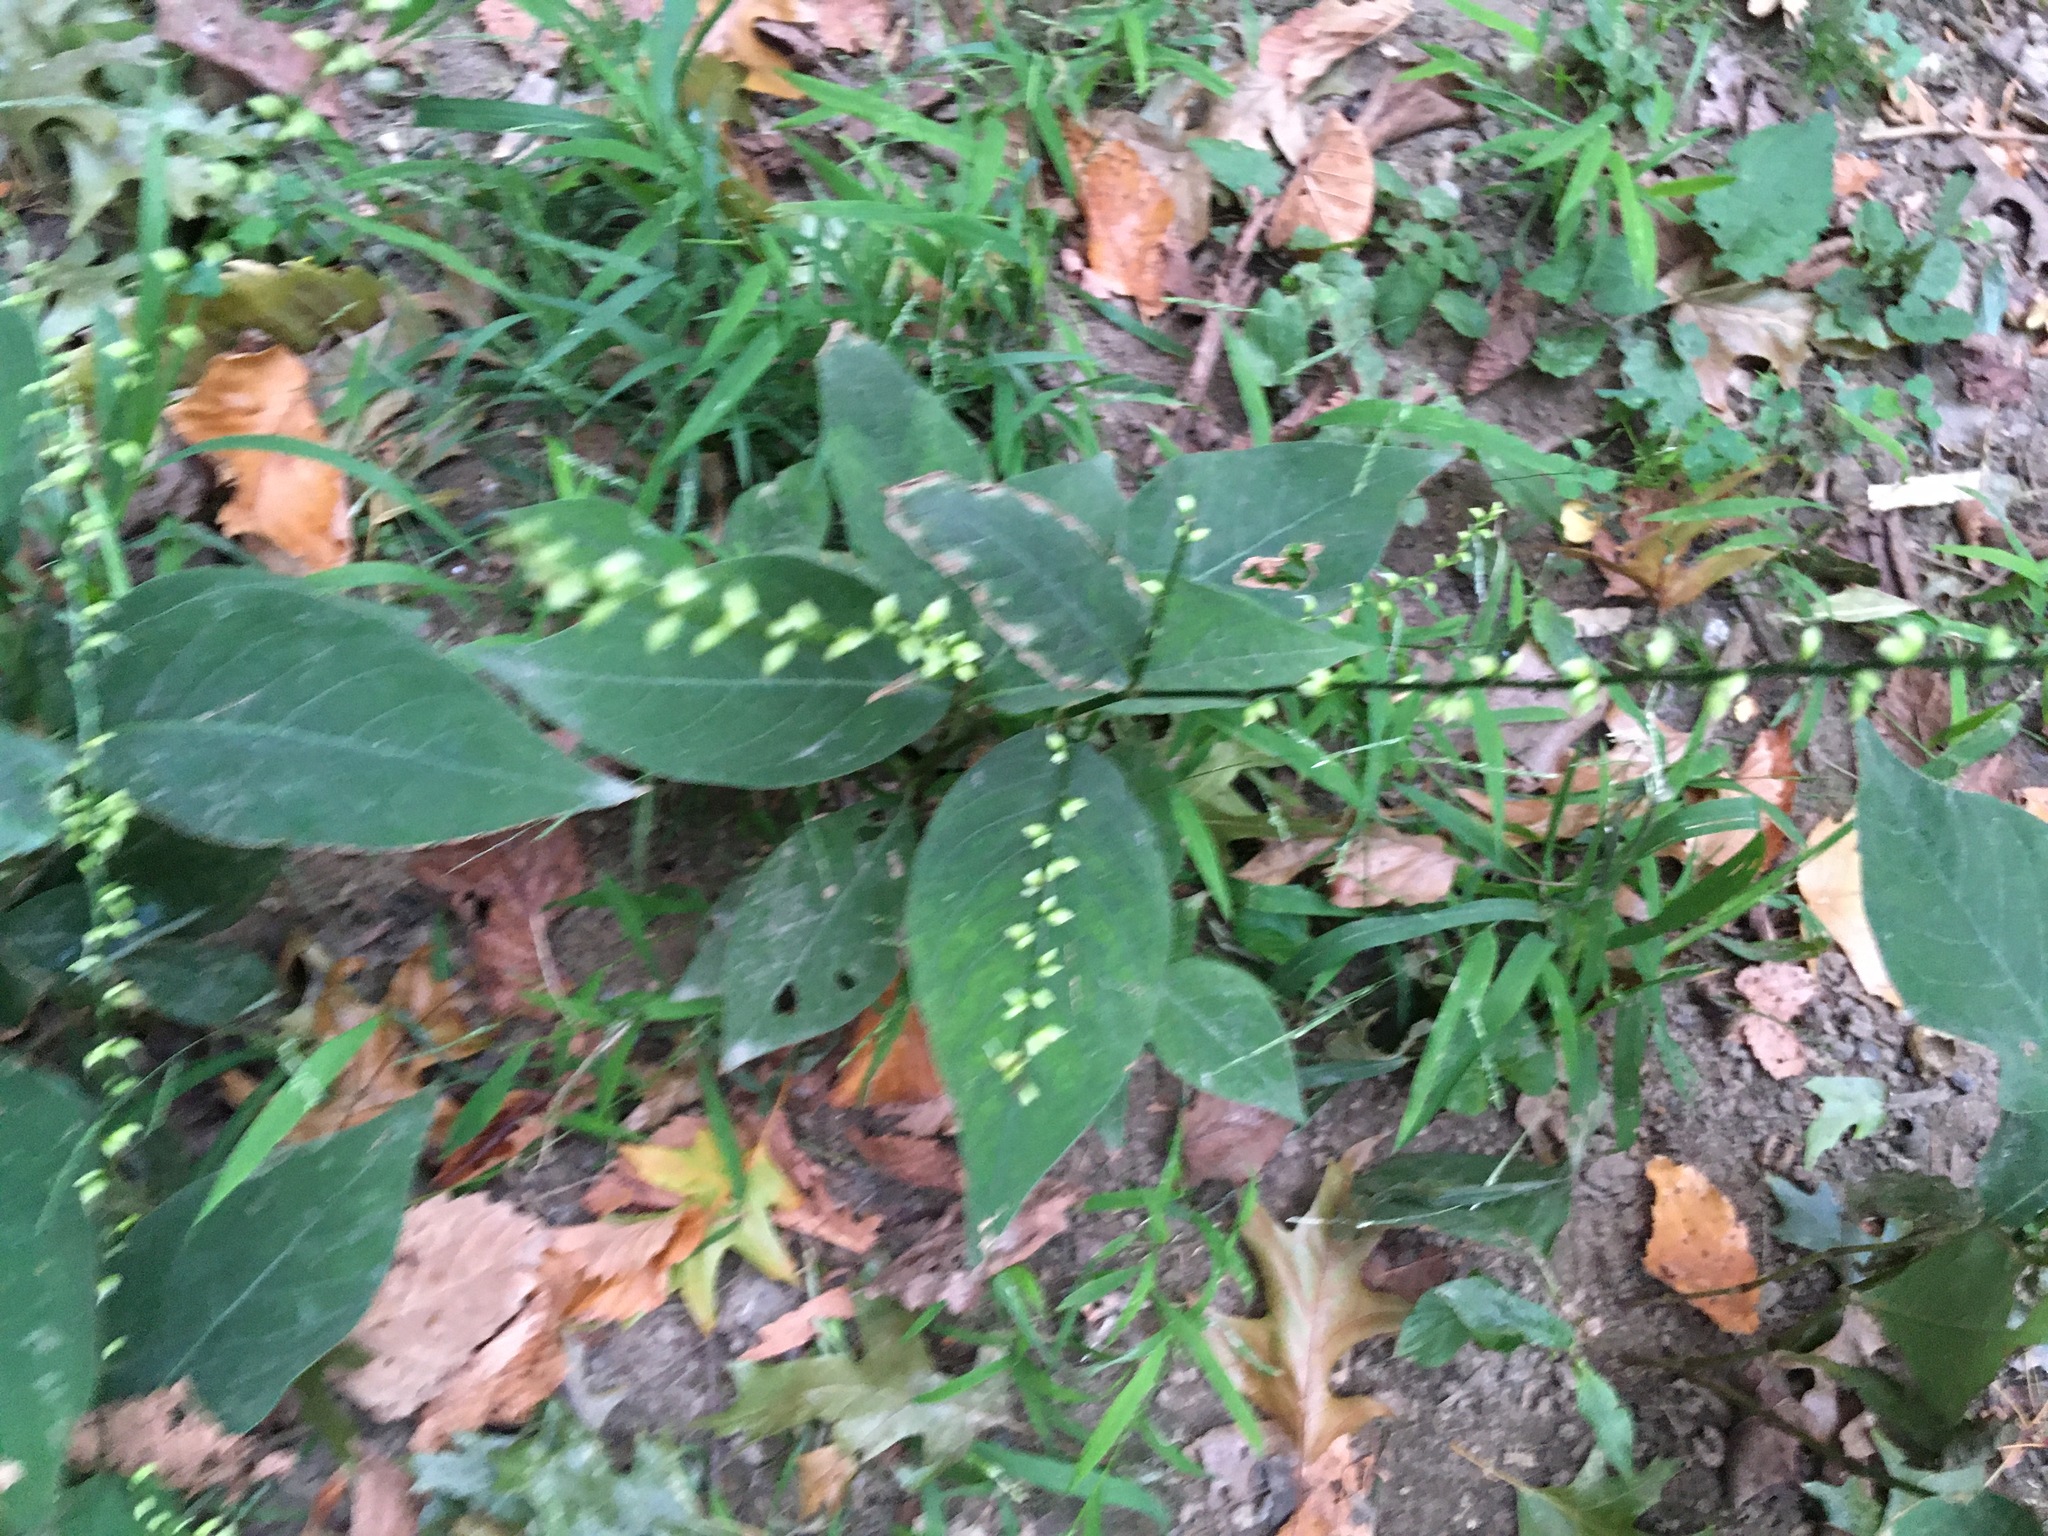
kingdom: Plantae
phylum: Tracheophyta
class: Magnoliopsida
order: Caryophyllales
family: Polygonaceae
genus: Persicaria
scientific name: Persicaria virginiana
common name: Jumpseed
